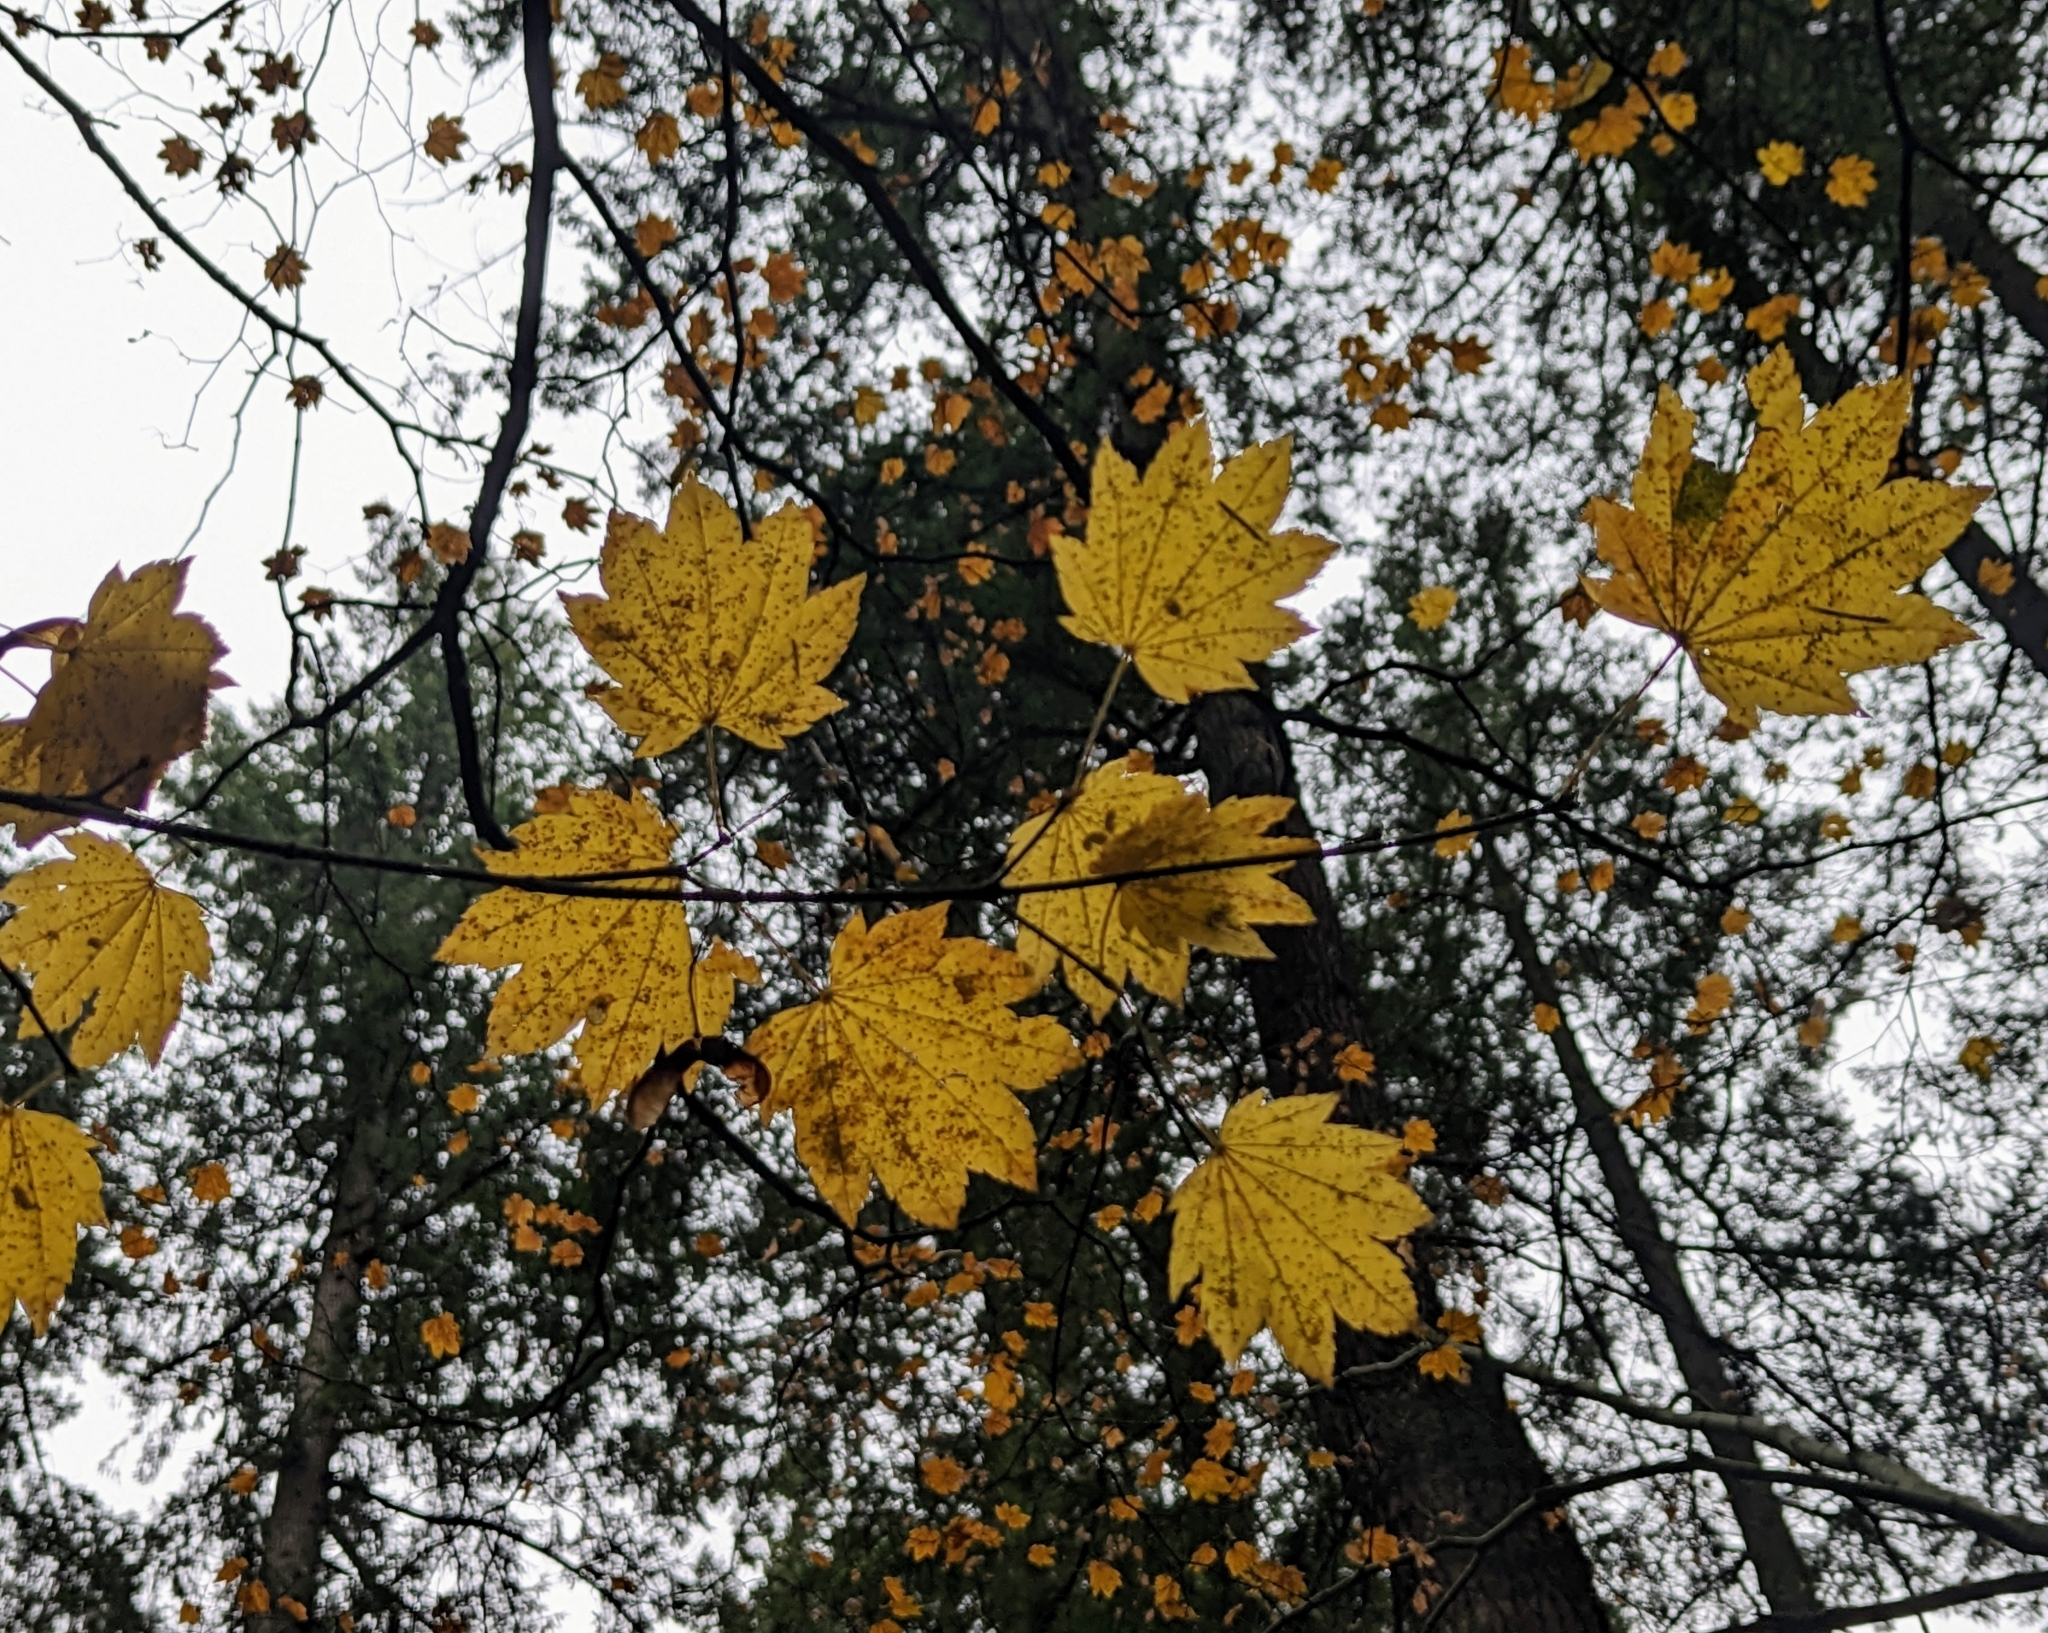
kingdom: Plantae
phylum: Tracheophyta
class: Magnoliopsida
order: Sapindales
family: Sapindaceae
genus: Acer
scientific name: Acer circinatum
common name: Vine maple
